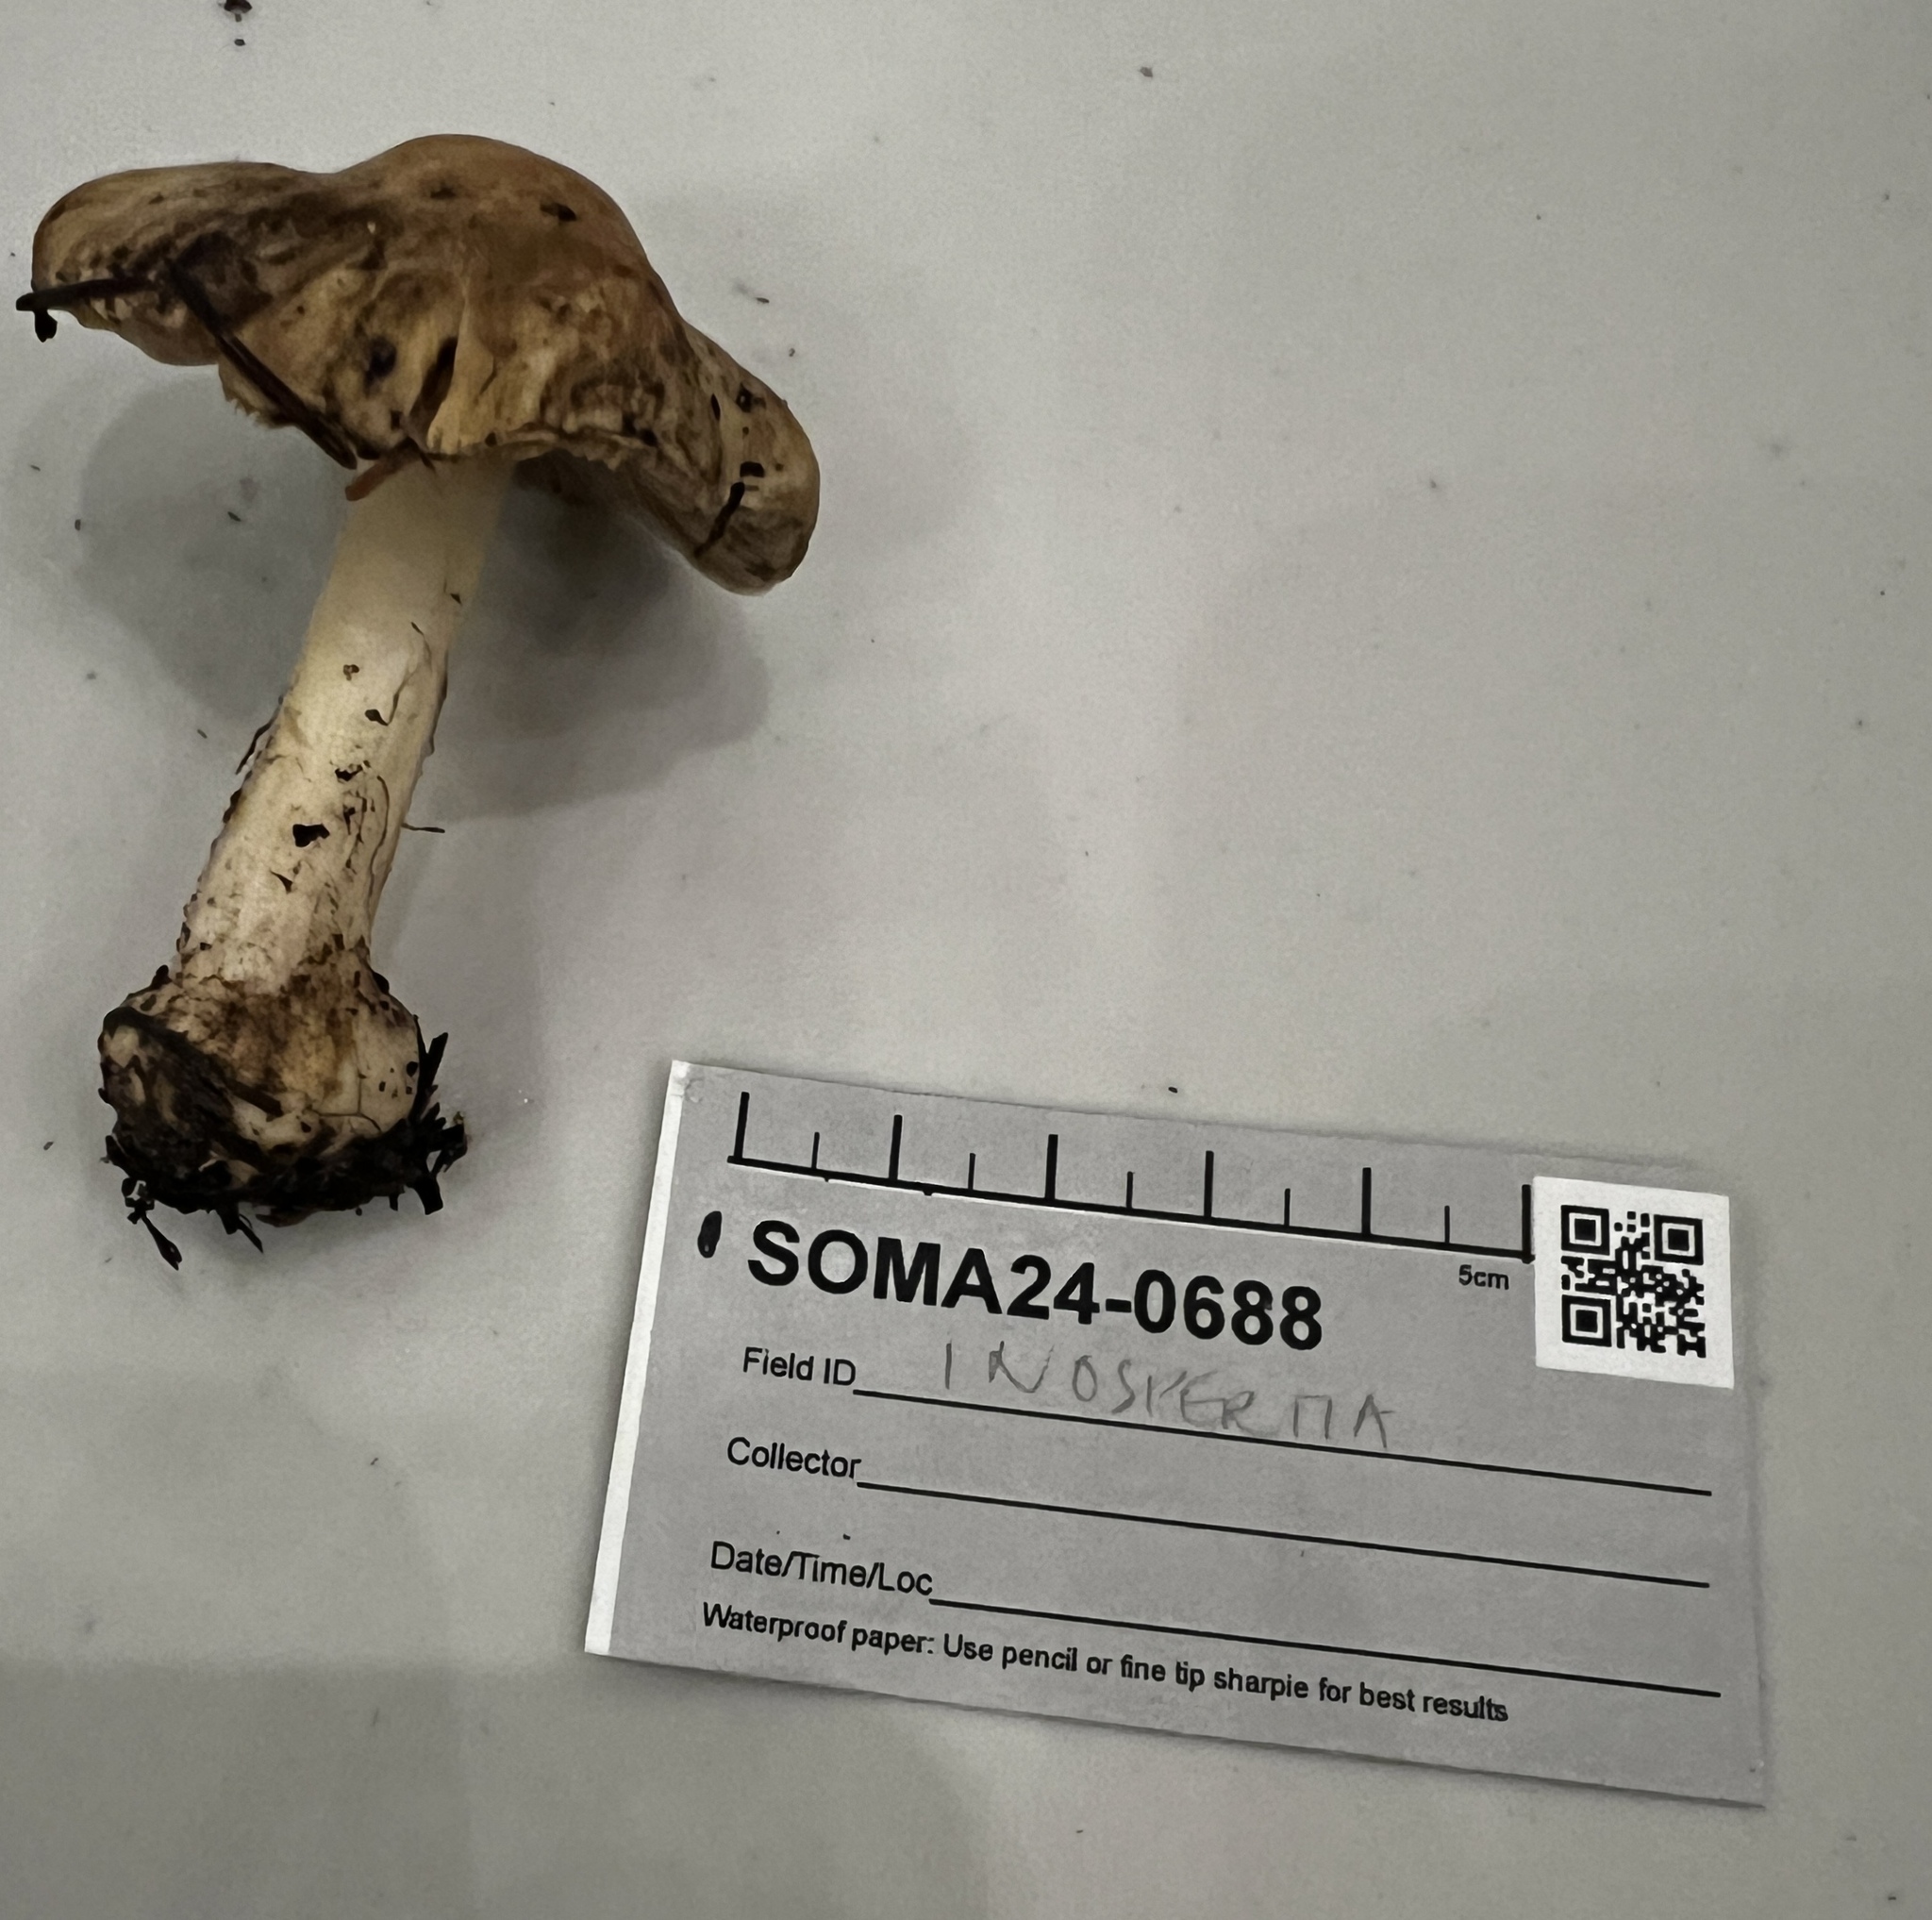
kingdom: Fungi
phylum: Basidiomycota
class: Agaricomycetes
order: Agaricales
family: Inocybaceae
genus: Inocybe
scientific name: Inocybe ceskae
